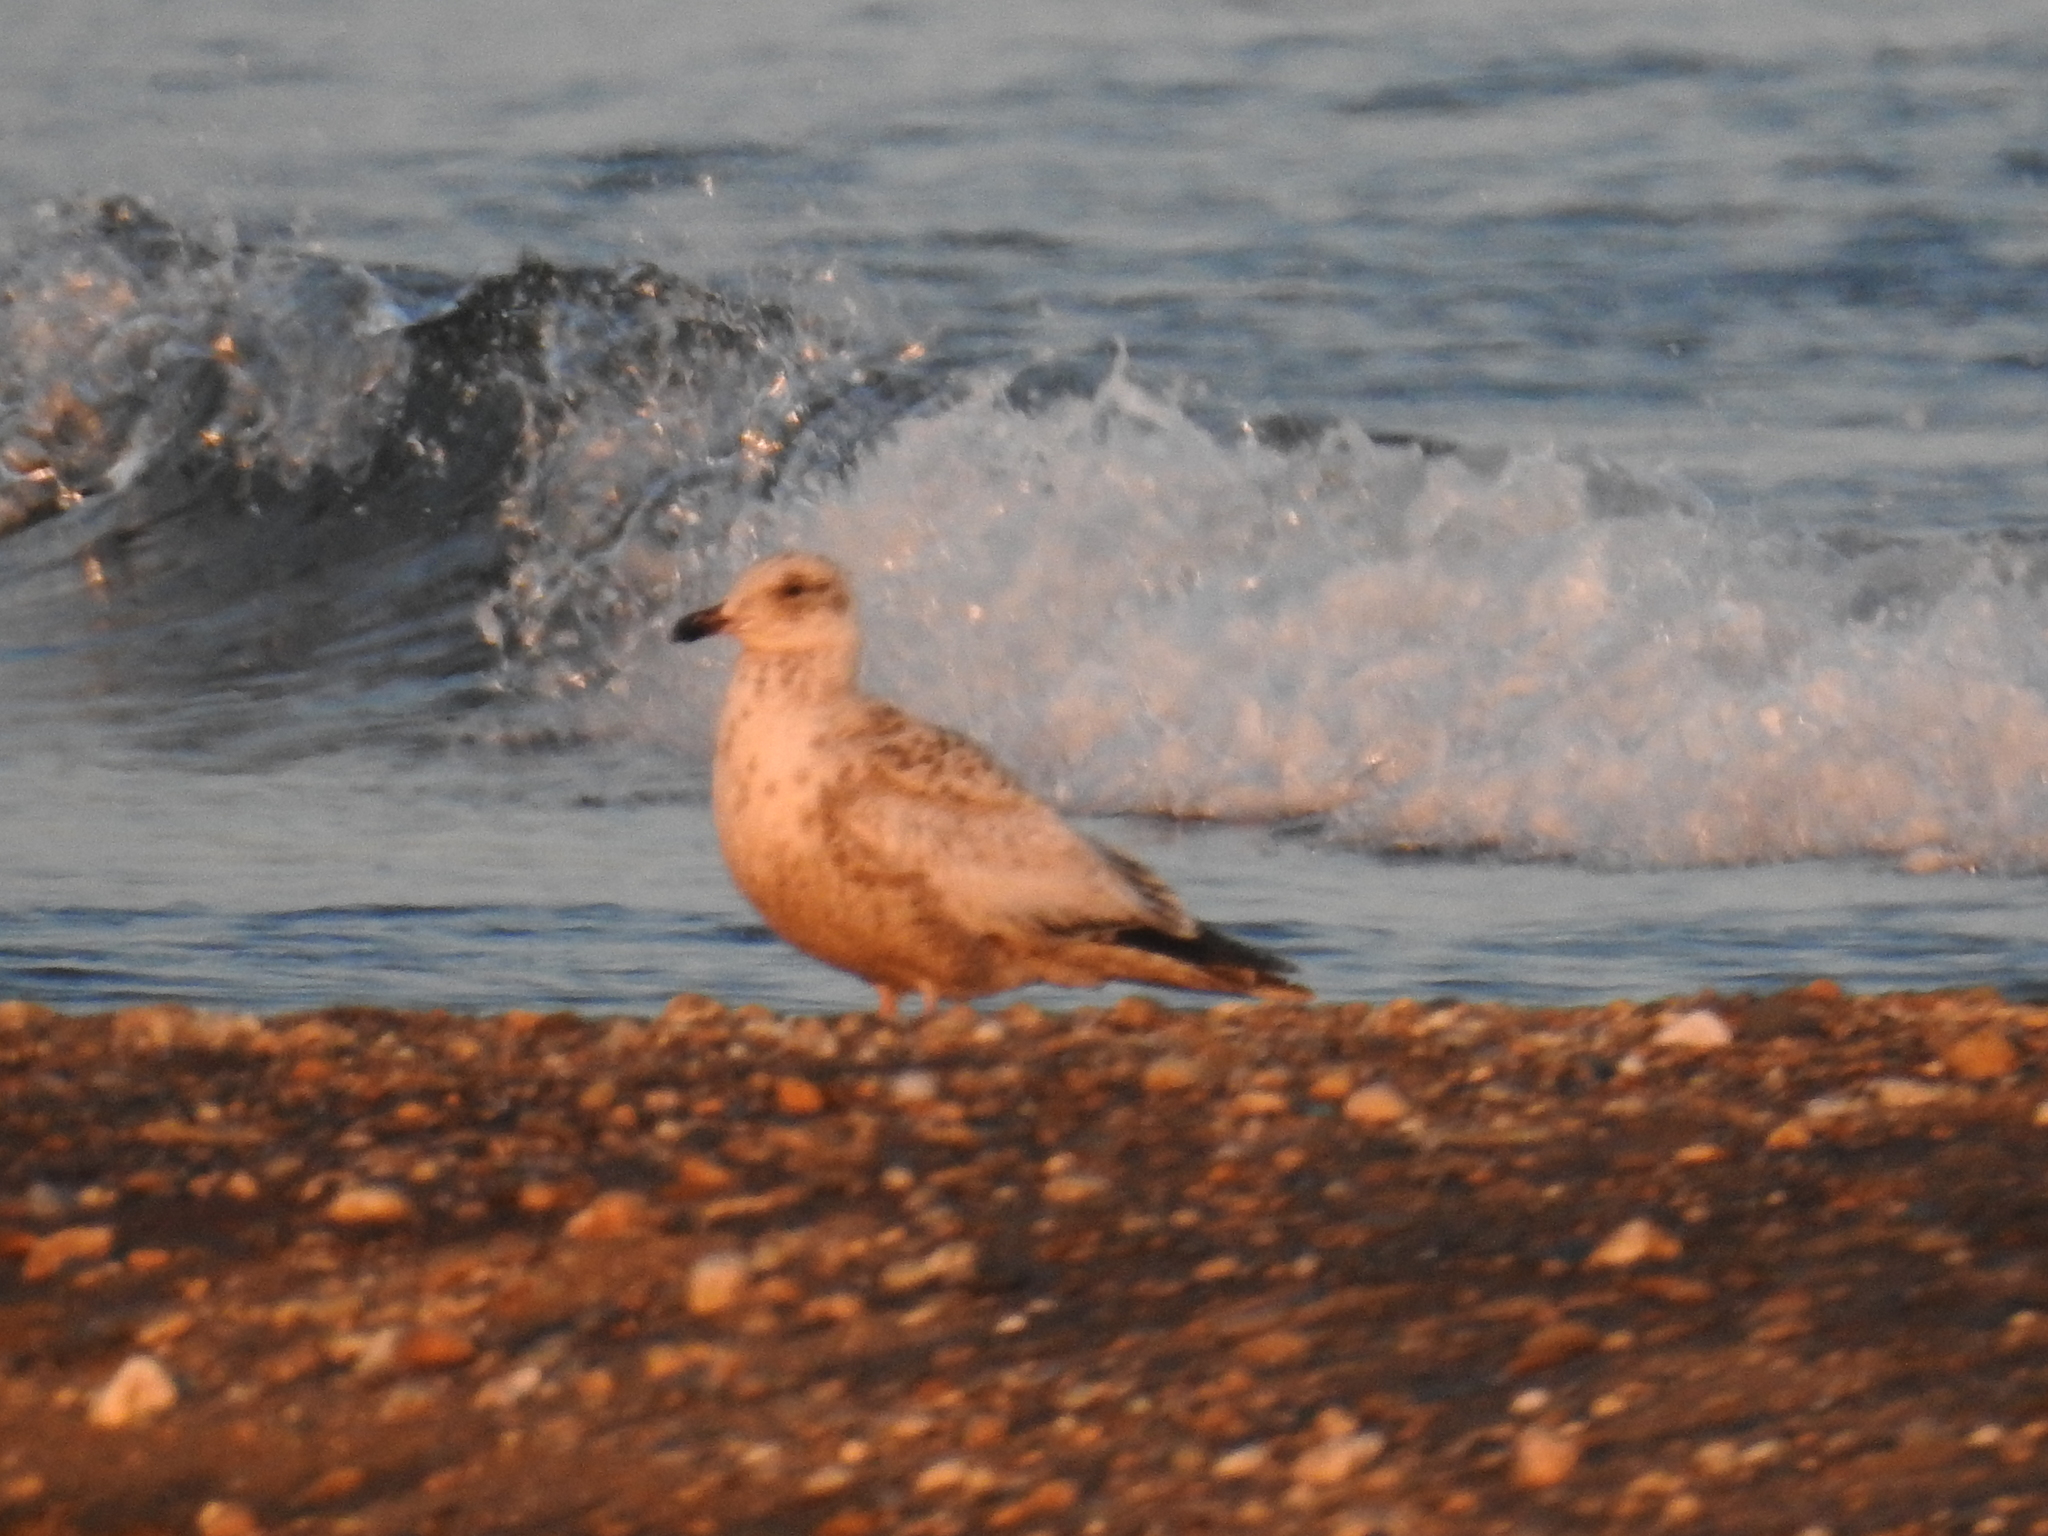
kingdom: Animalia
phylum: Chordata
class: Aves
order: Charadriiformes
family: Laridae
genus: Larus
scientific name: Larus schistisagus
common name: Slaty-backed gull
